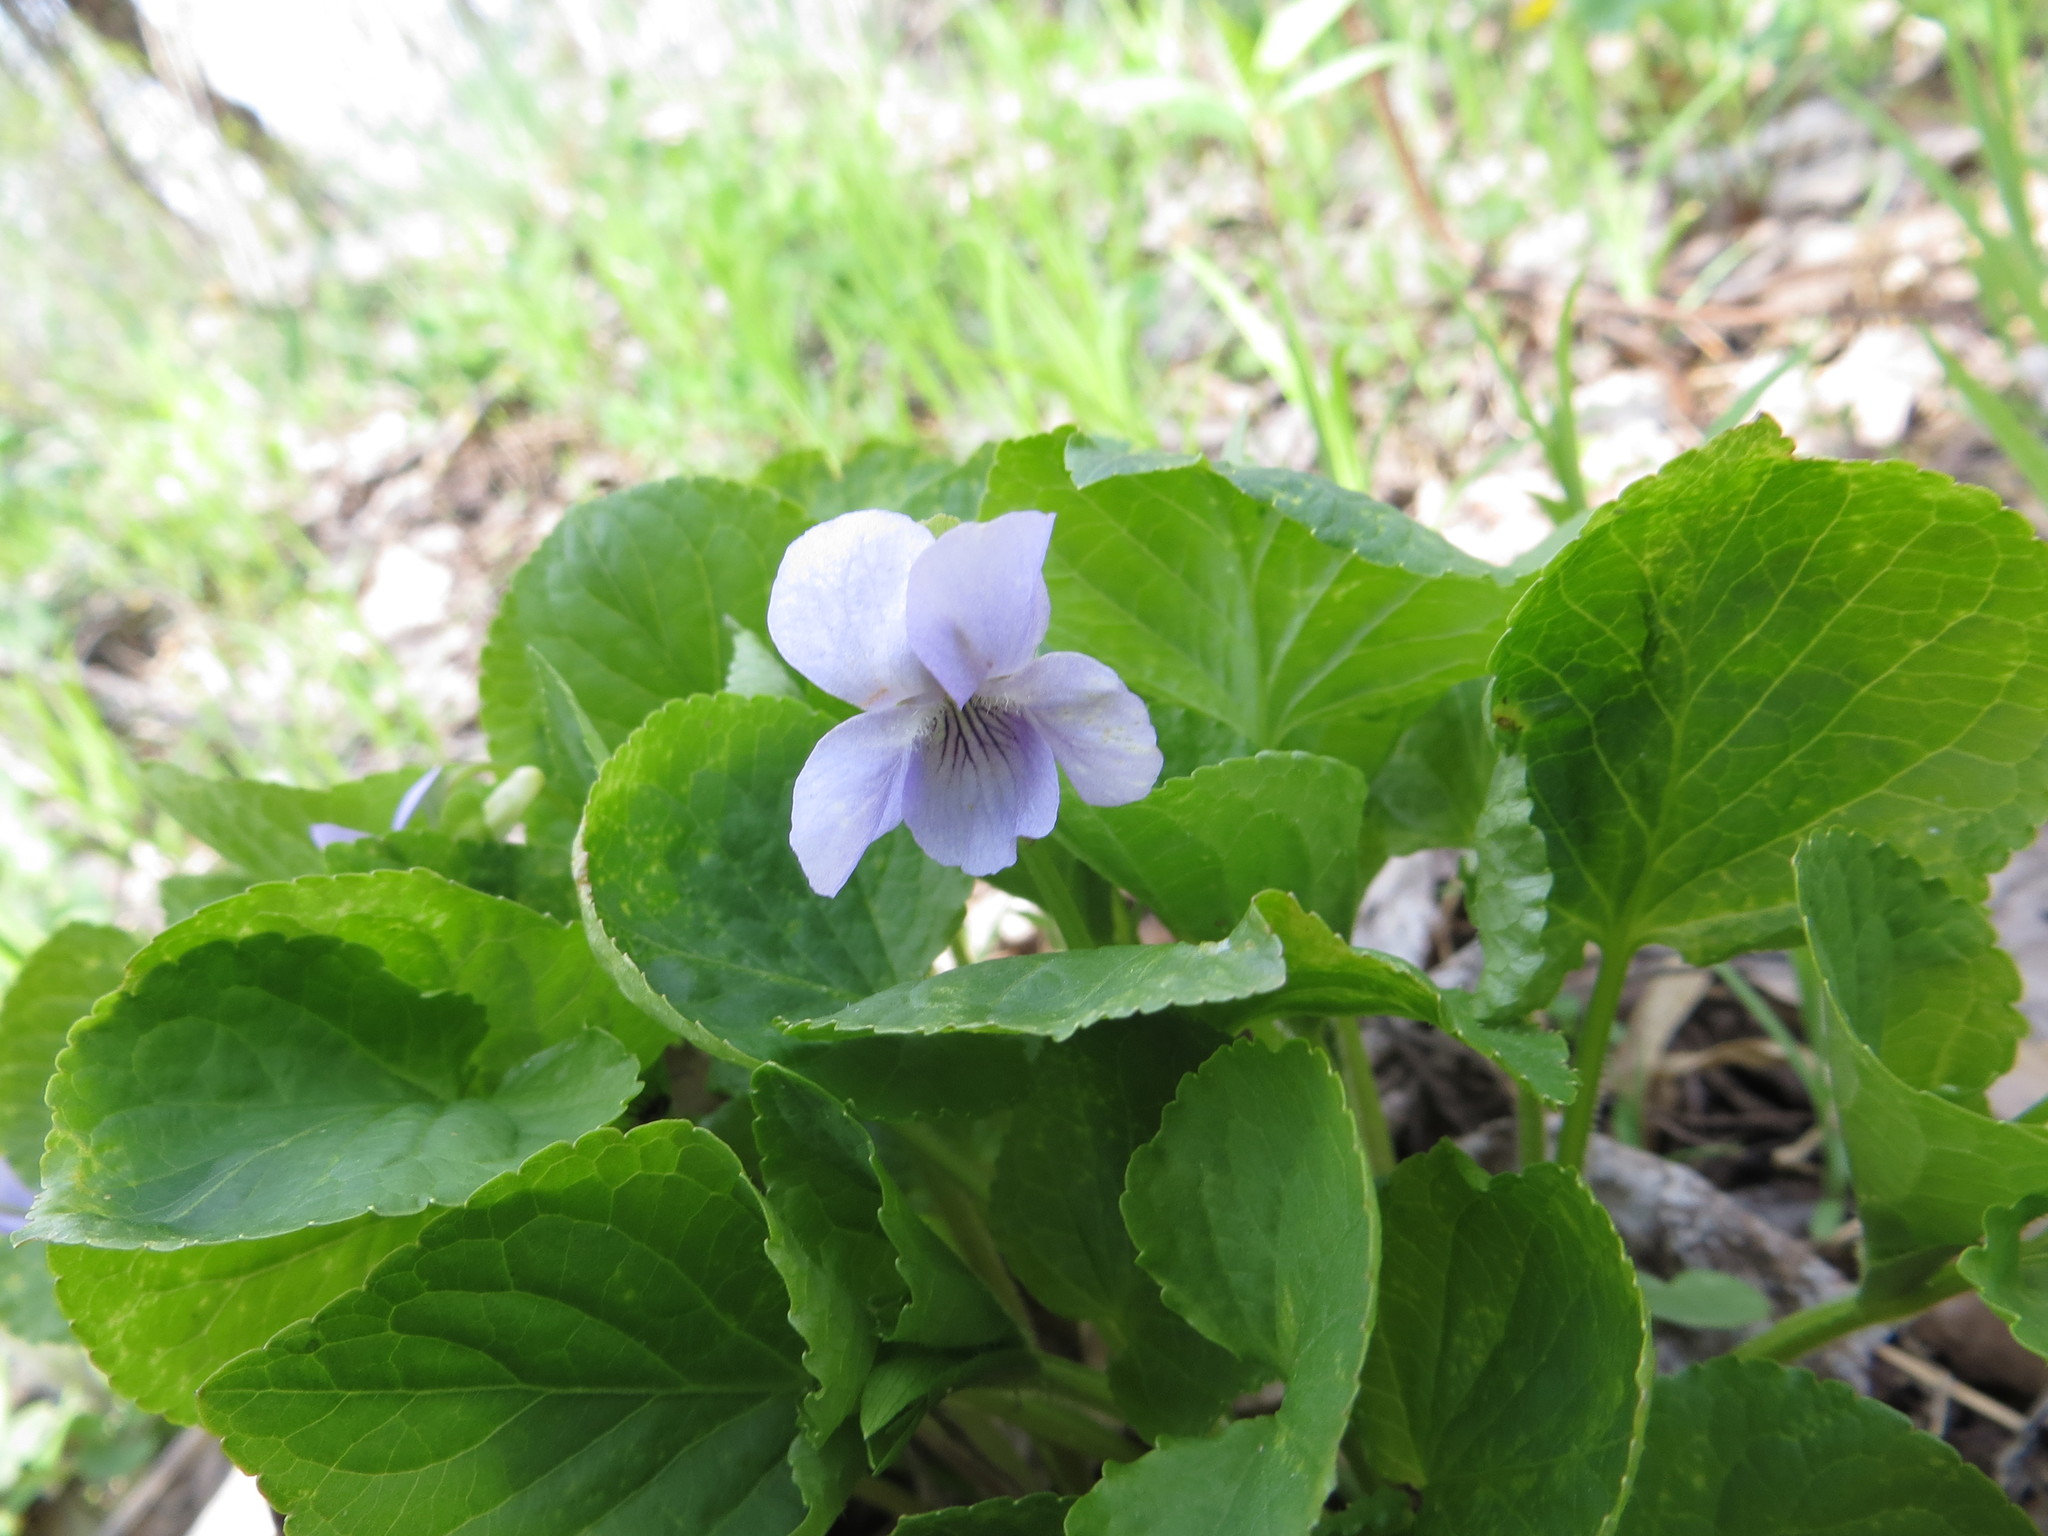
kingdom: Plantae
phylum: Tracheophyta
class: Magnoliopsida
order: Malpighiales
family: Violaceae
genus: Viola
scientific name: Viola mirabilis
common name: Wonder violet
